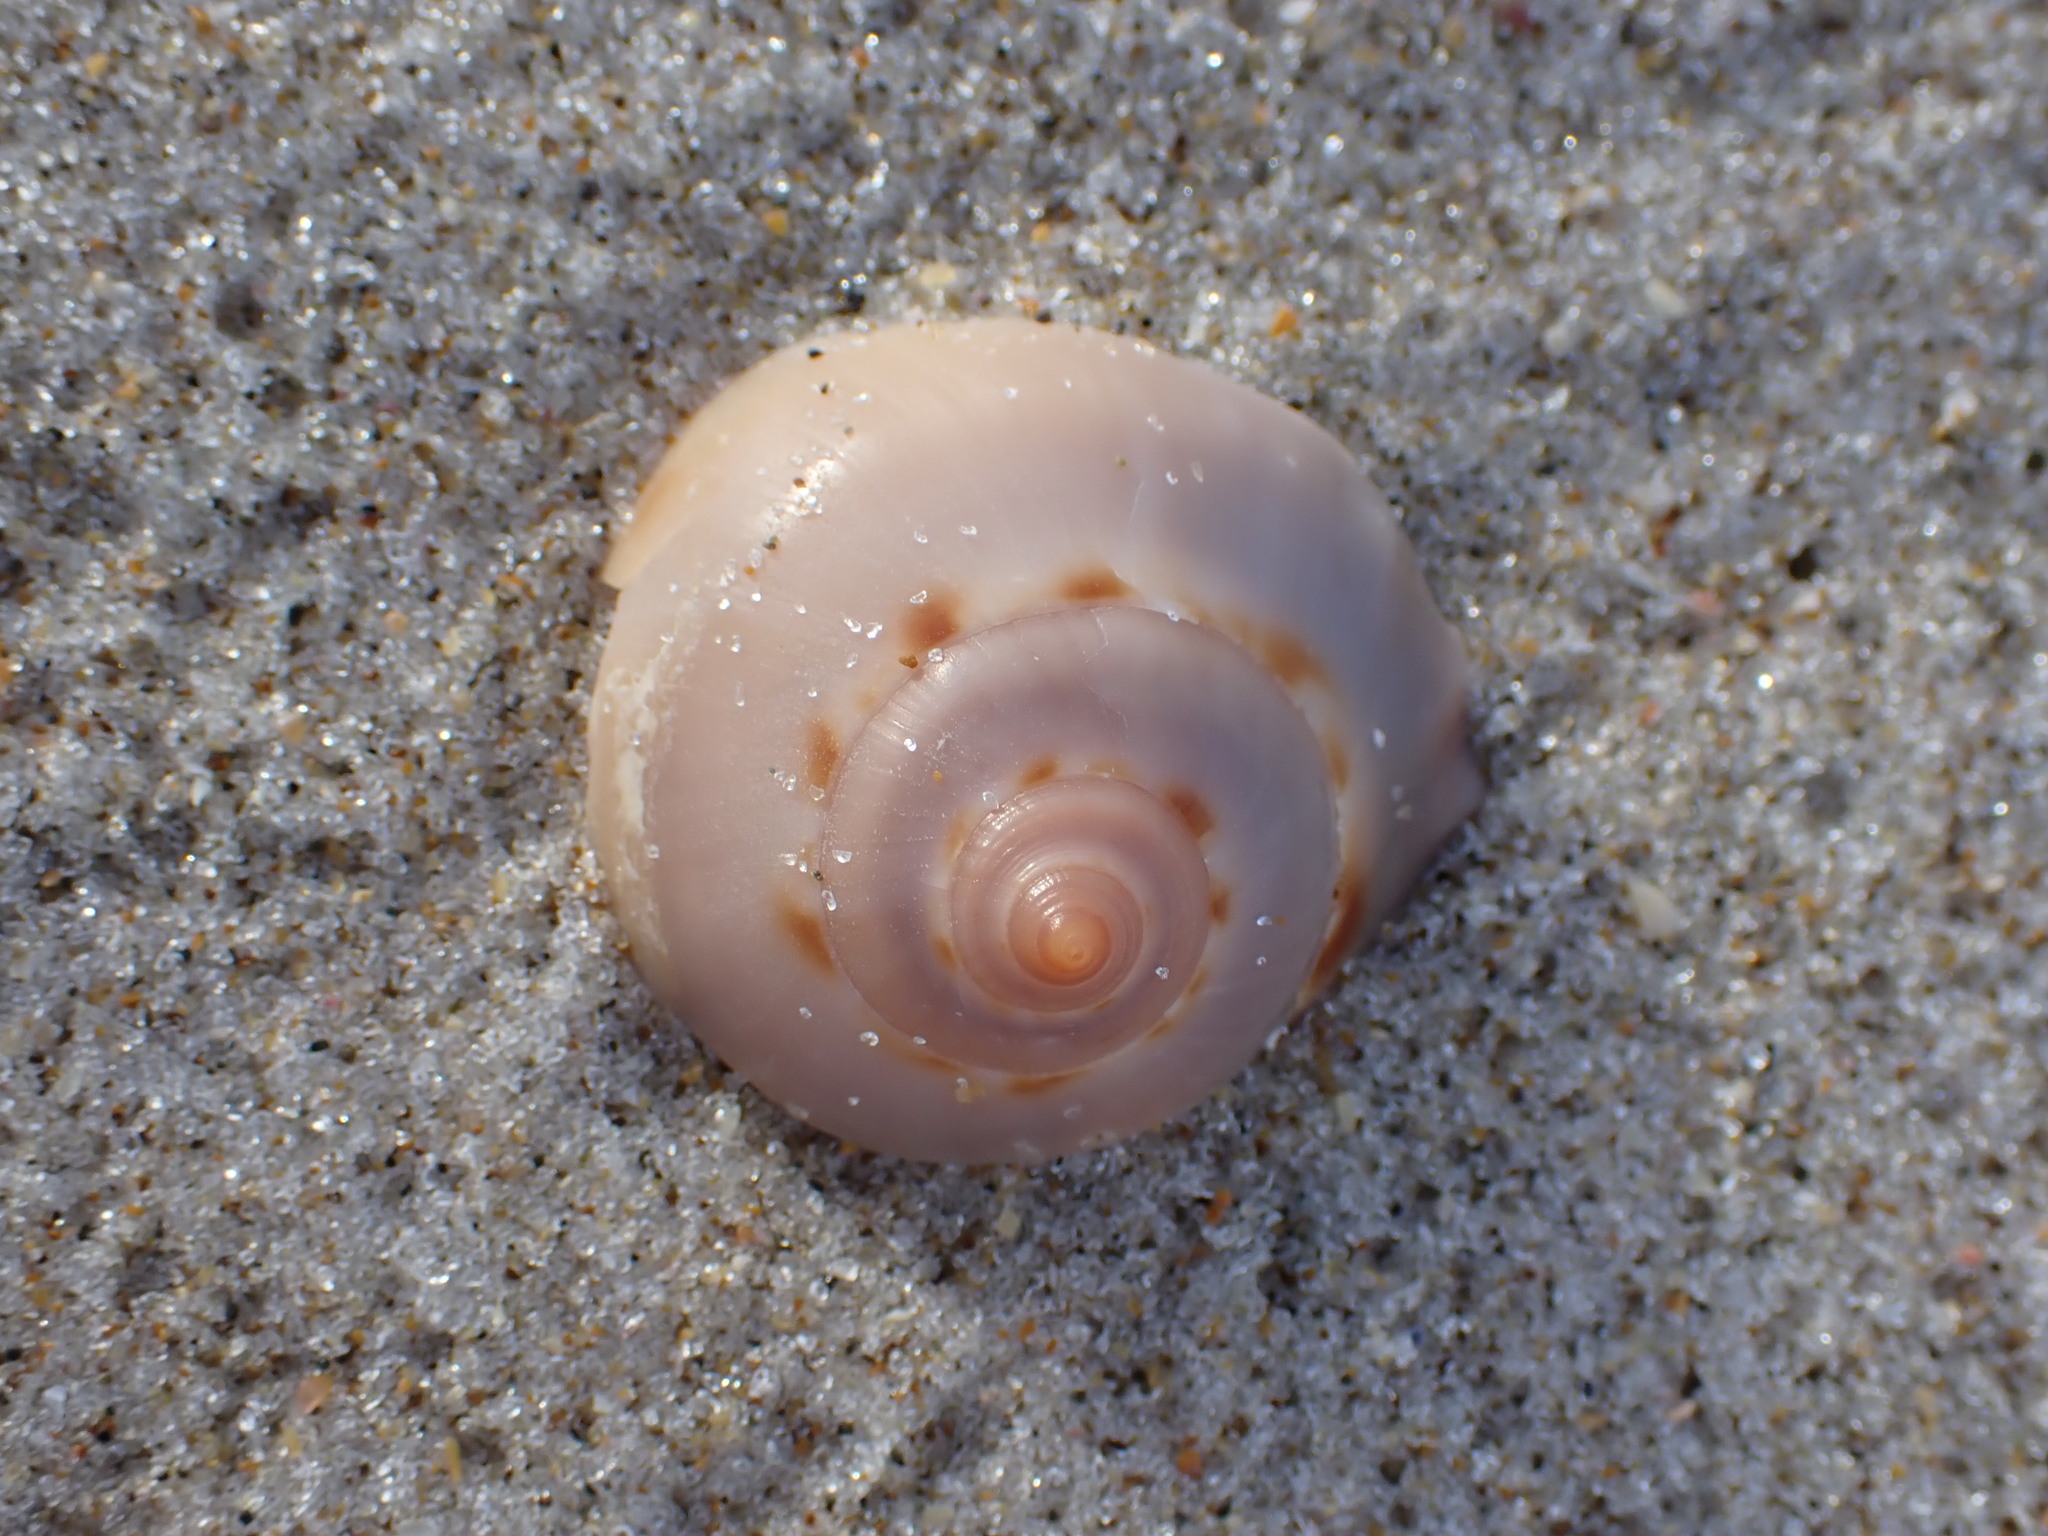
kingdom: Animalia
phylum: Mollusca
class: Gastropoda
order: Littorinimorpha
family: Cassidae
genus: Semicassis
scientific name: Semicassis labiata
